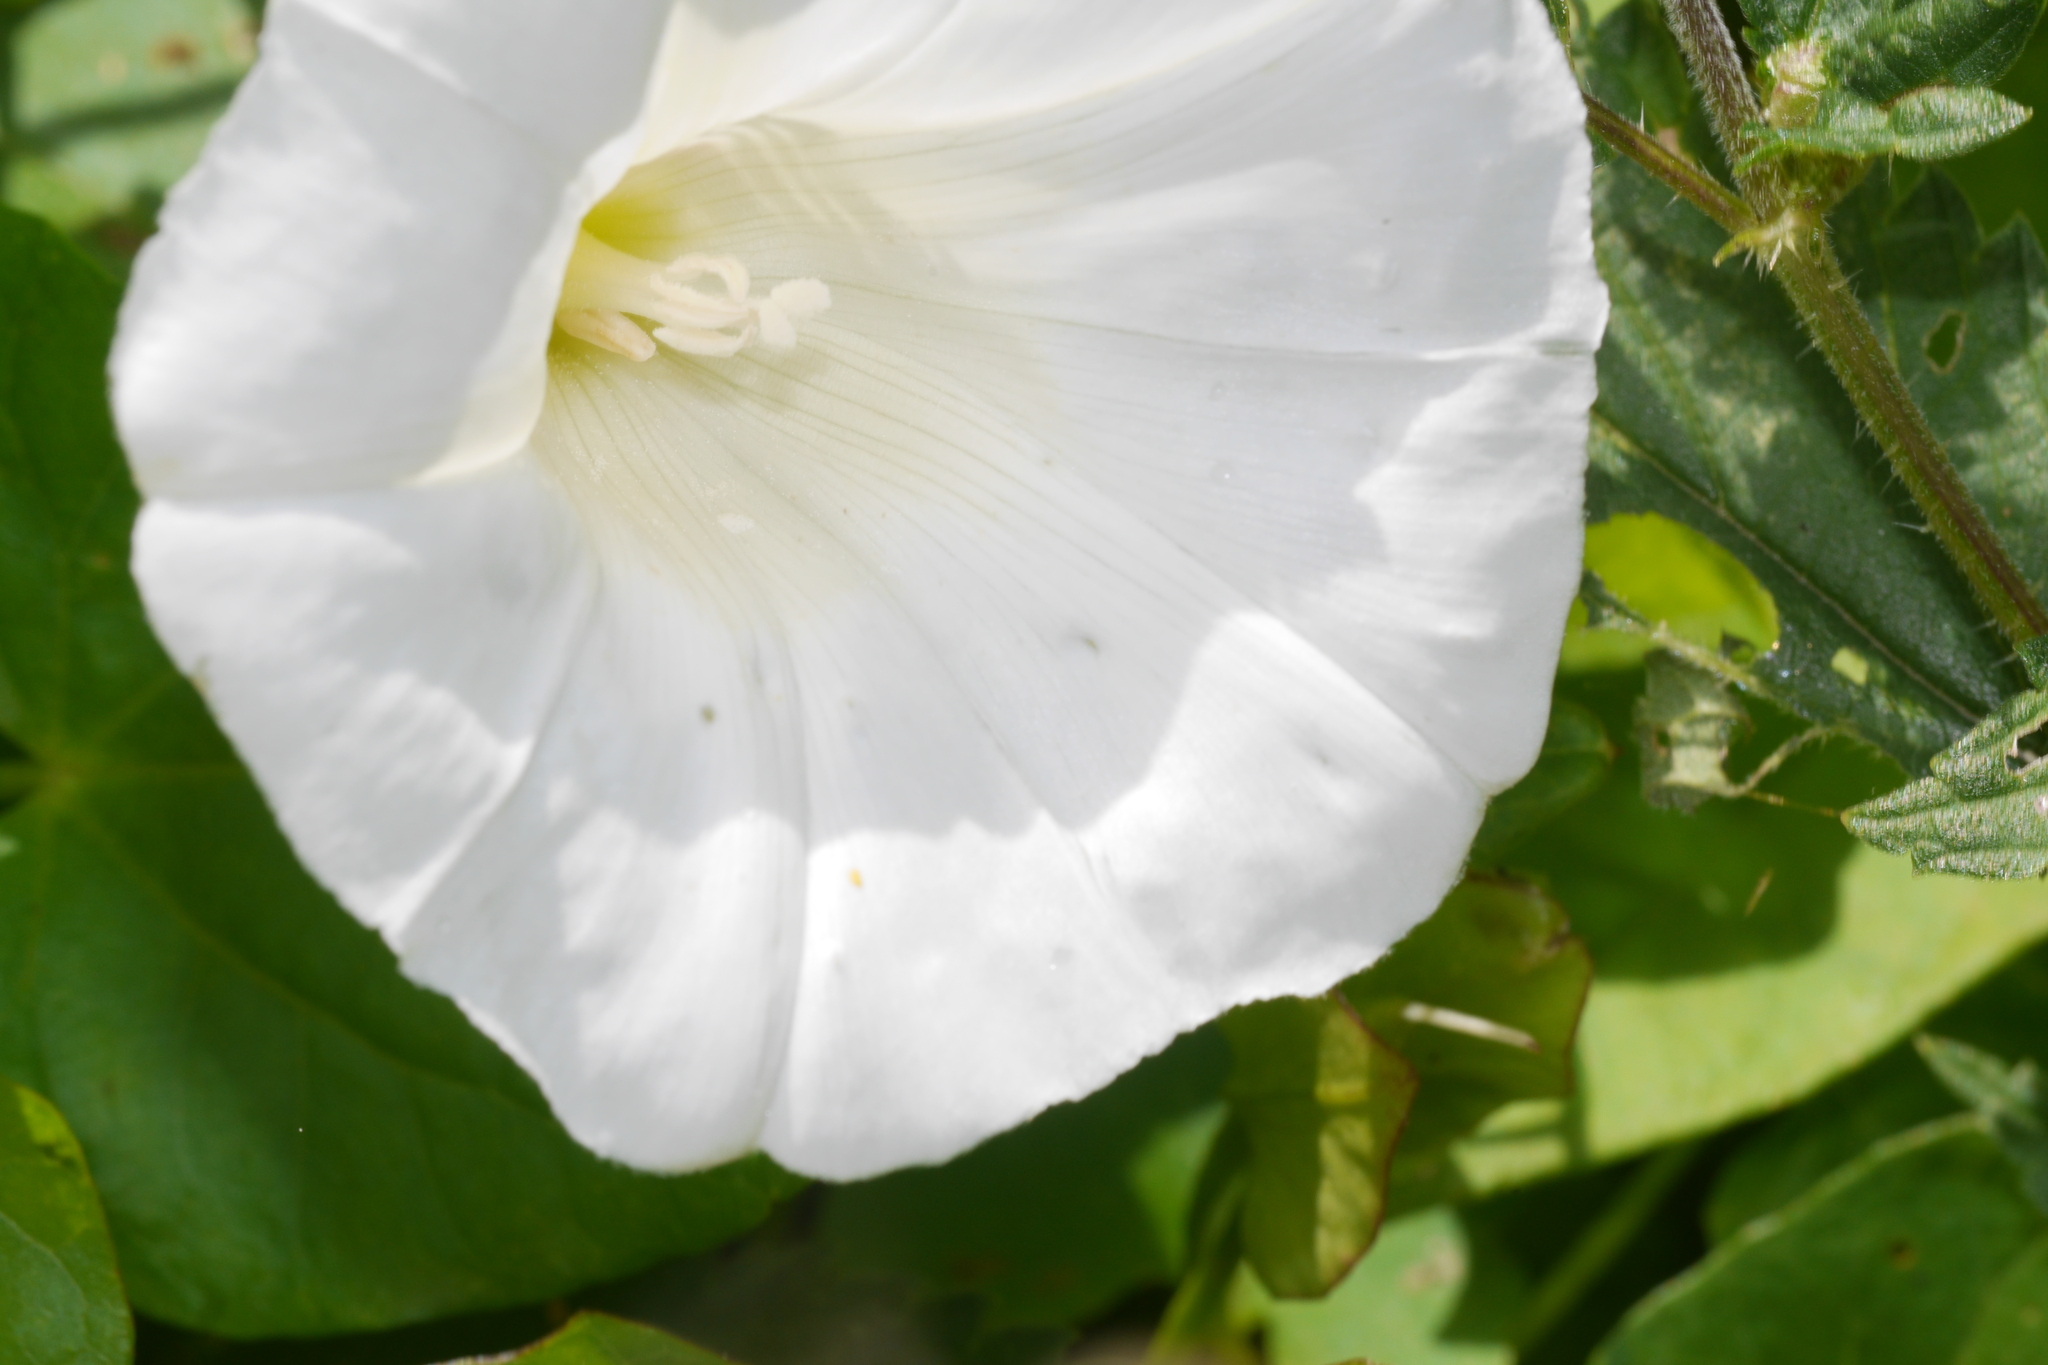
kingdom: Plantae
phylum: Tracheophyta
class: Magnoliopsida
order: Solanales
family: Convolvulaceae
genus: Calystegia
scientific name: Calystegia sepium
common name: Hedge bindweed
